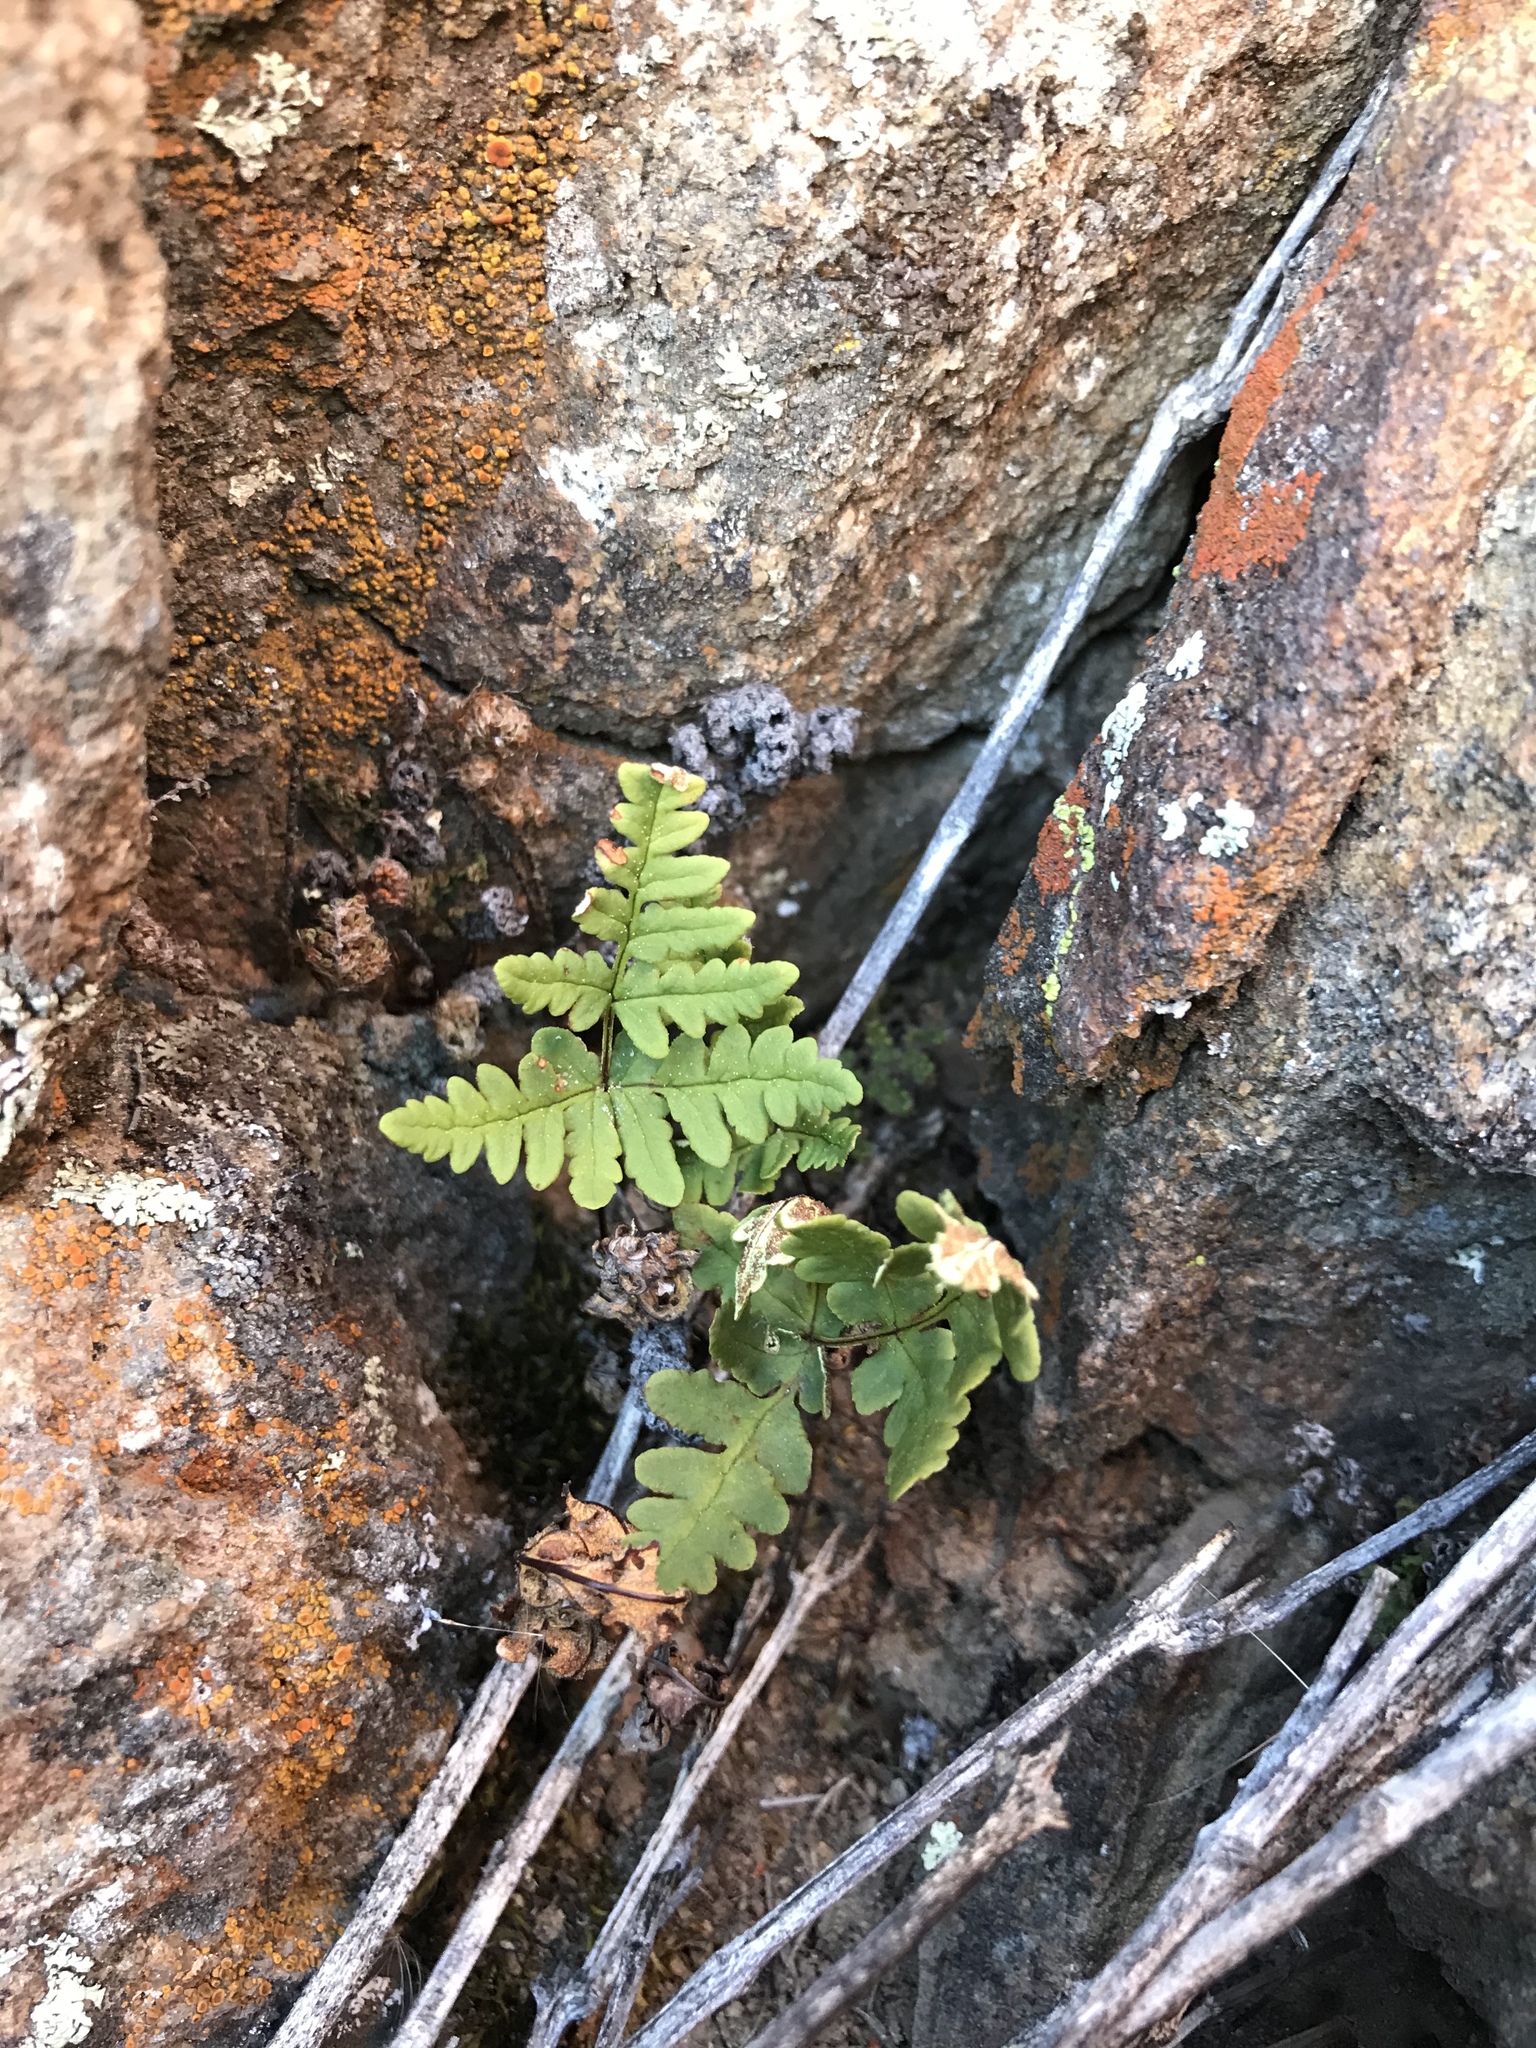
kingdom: Plantae
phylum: Tracheophyta
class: Polypodiopsida
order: Polypodiales
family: Pteridaceae
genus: Pentagramma
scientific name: Pentagramma triangularis
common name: Gold fern
